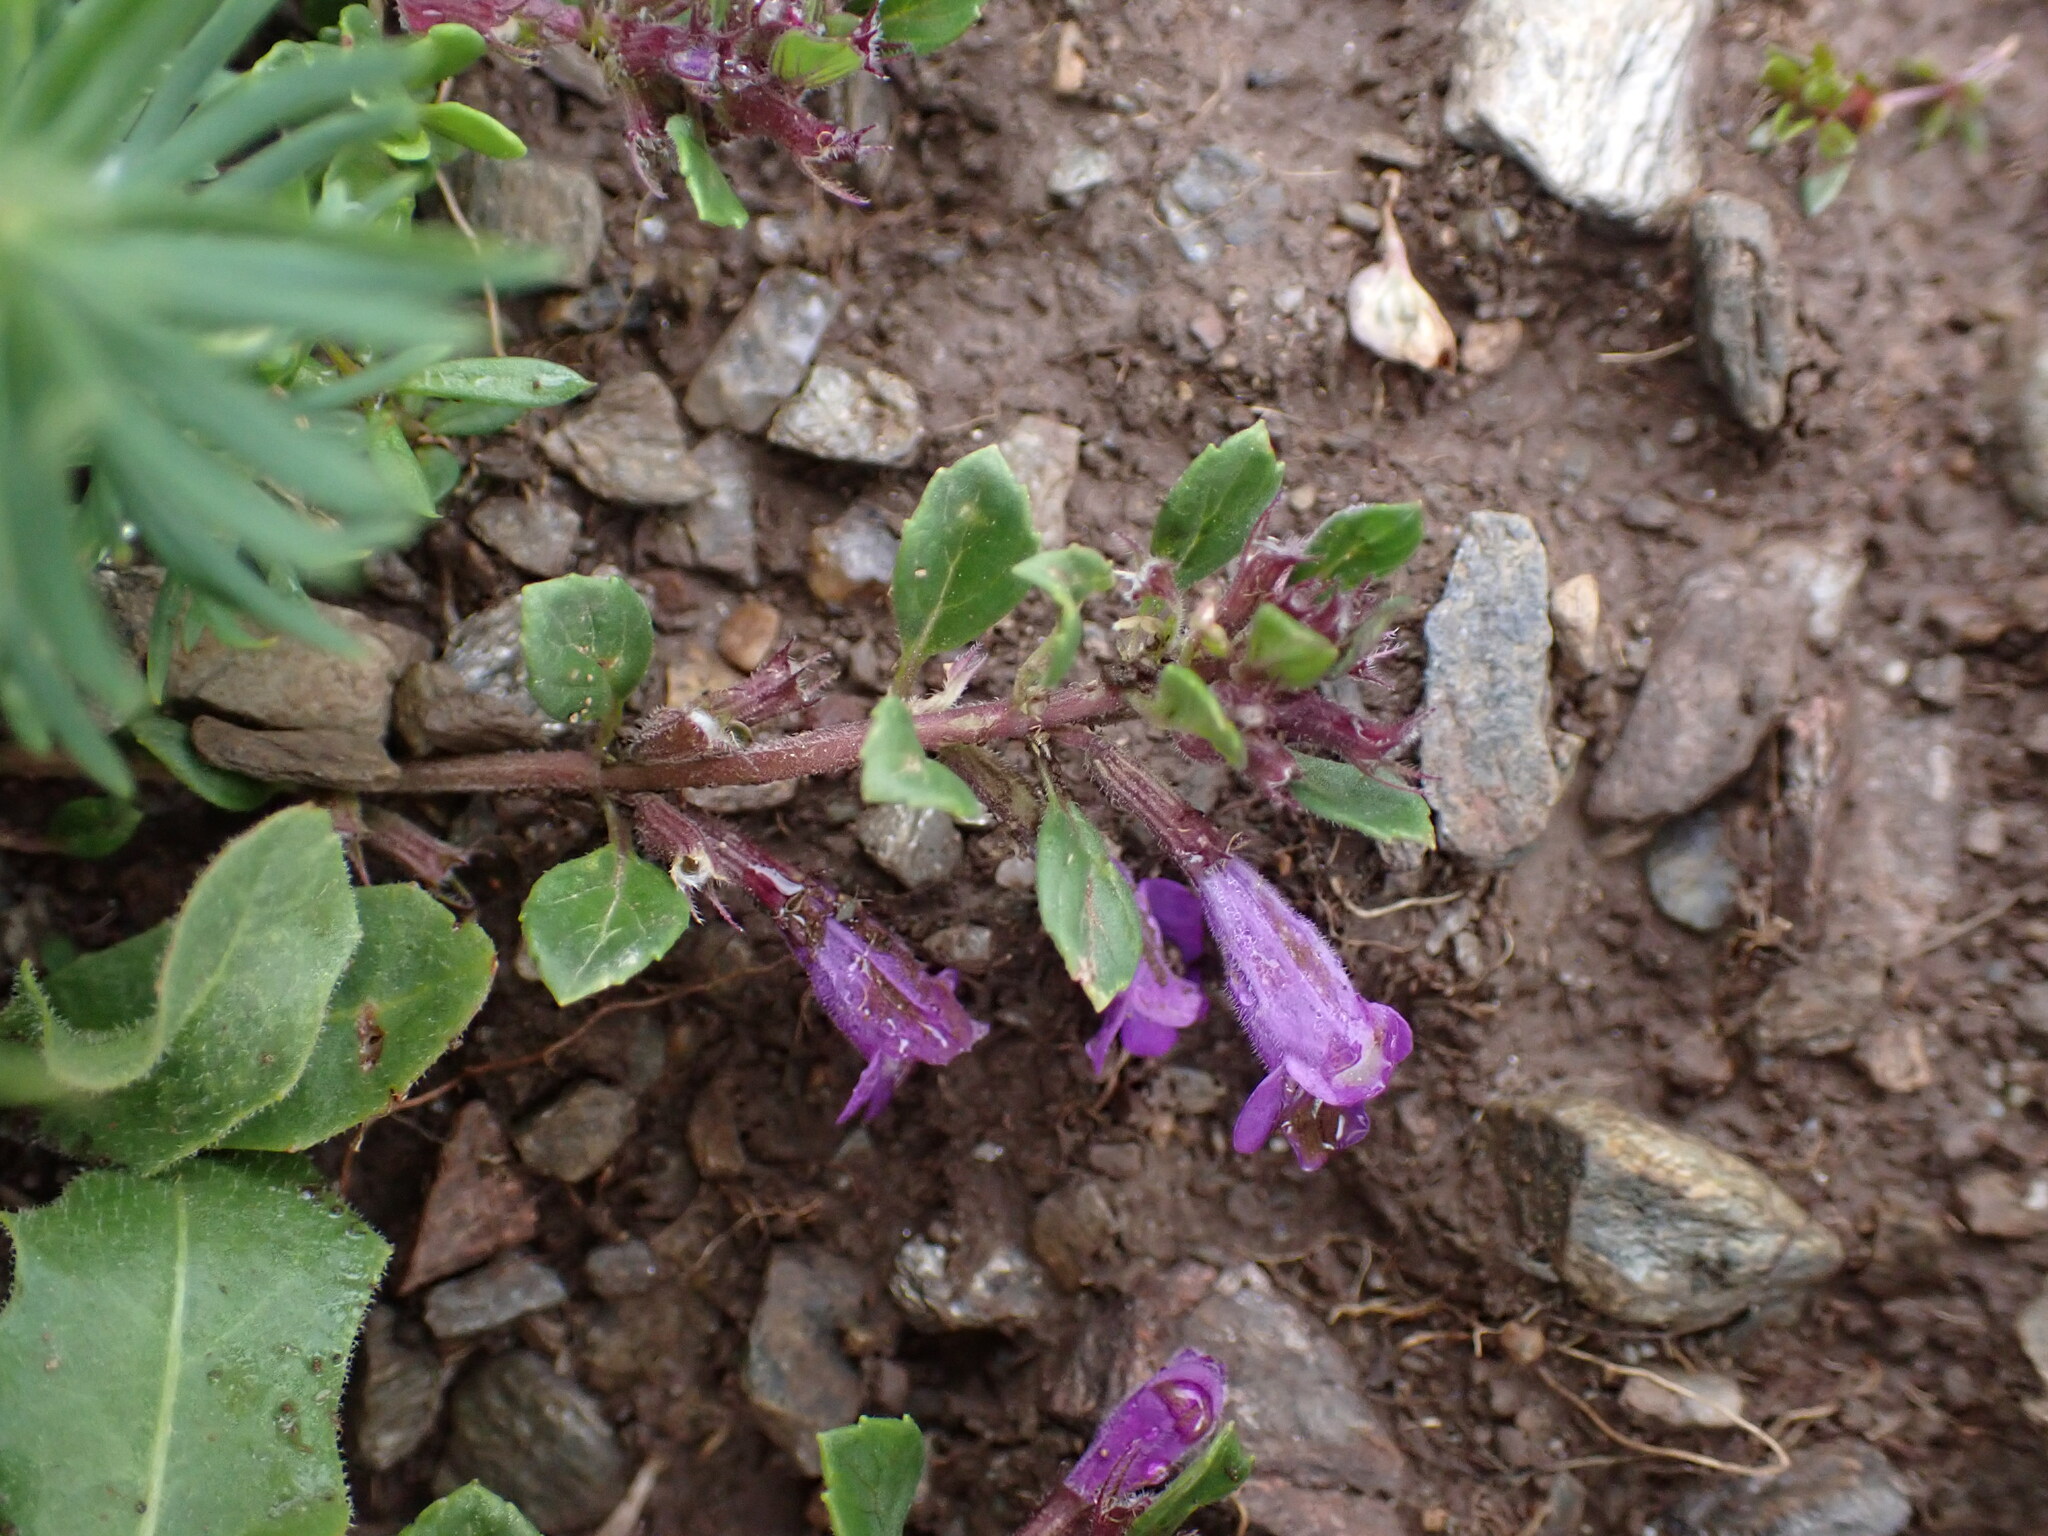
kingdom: Plantae
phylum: Tracheophyta
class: Magnoliopsida
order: Lamiales
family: Lamiaceae
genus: Clinopodium
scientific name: Clinopodium alpinum
